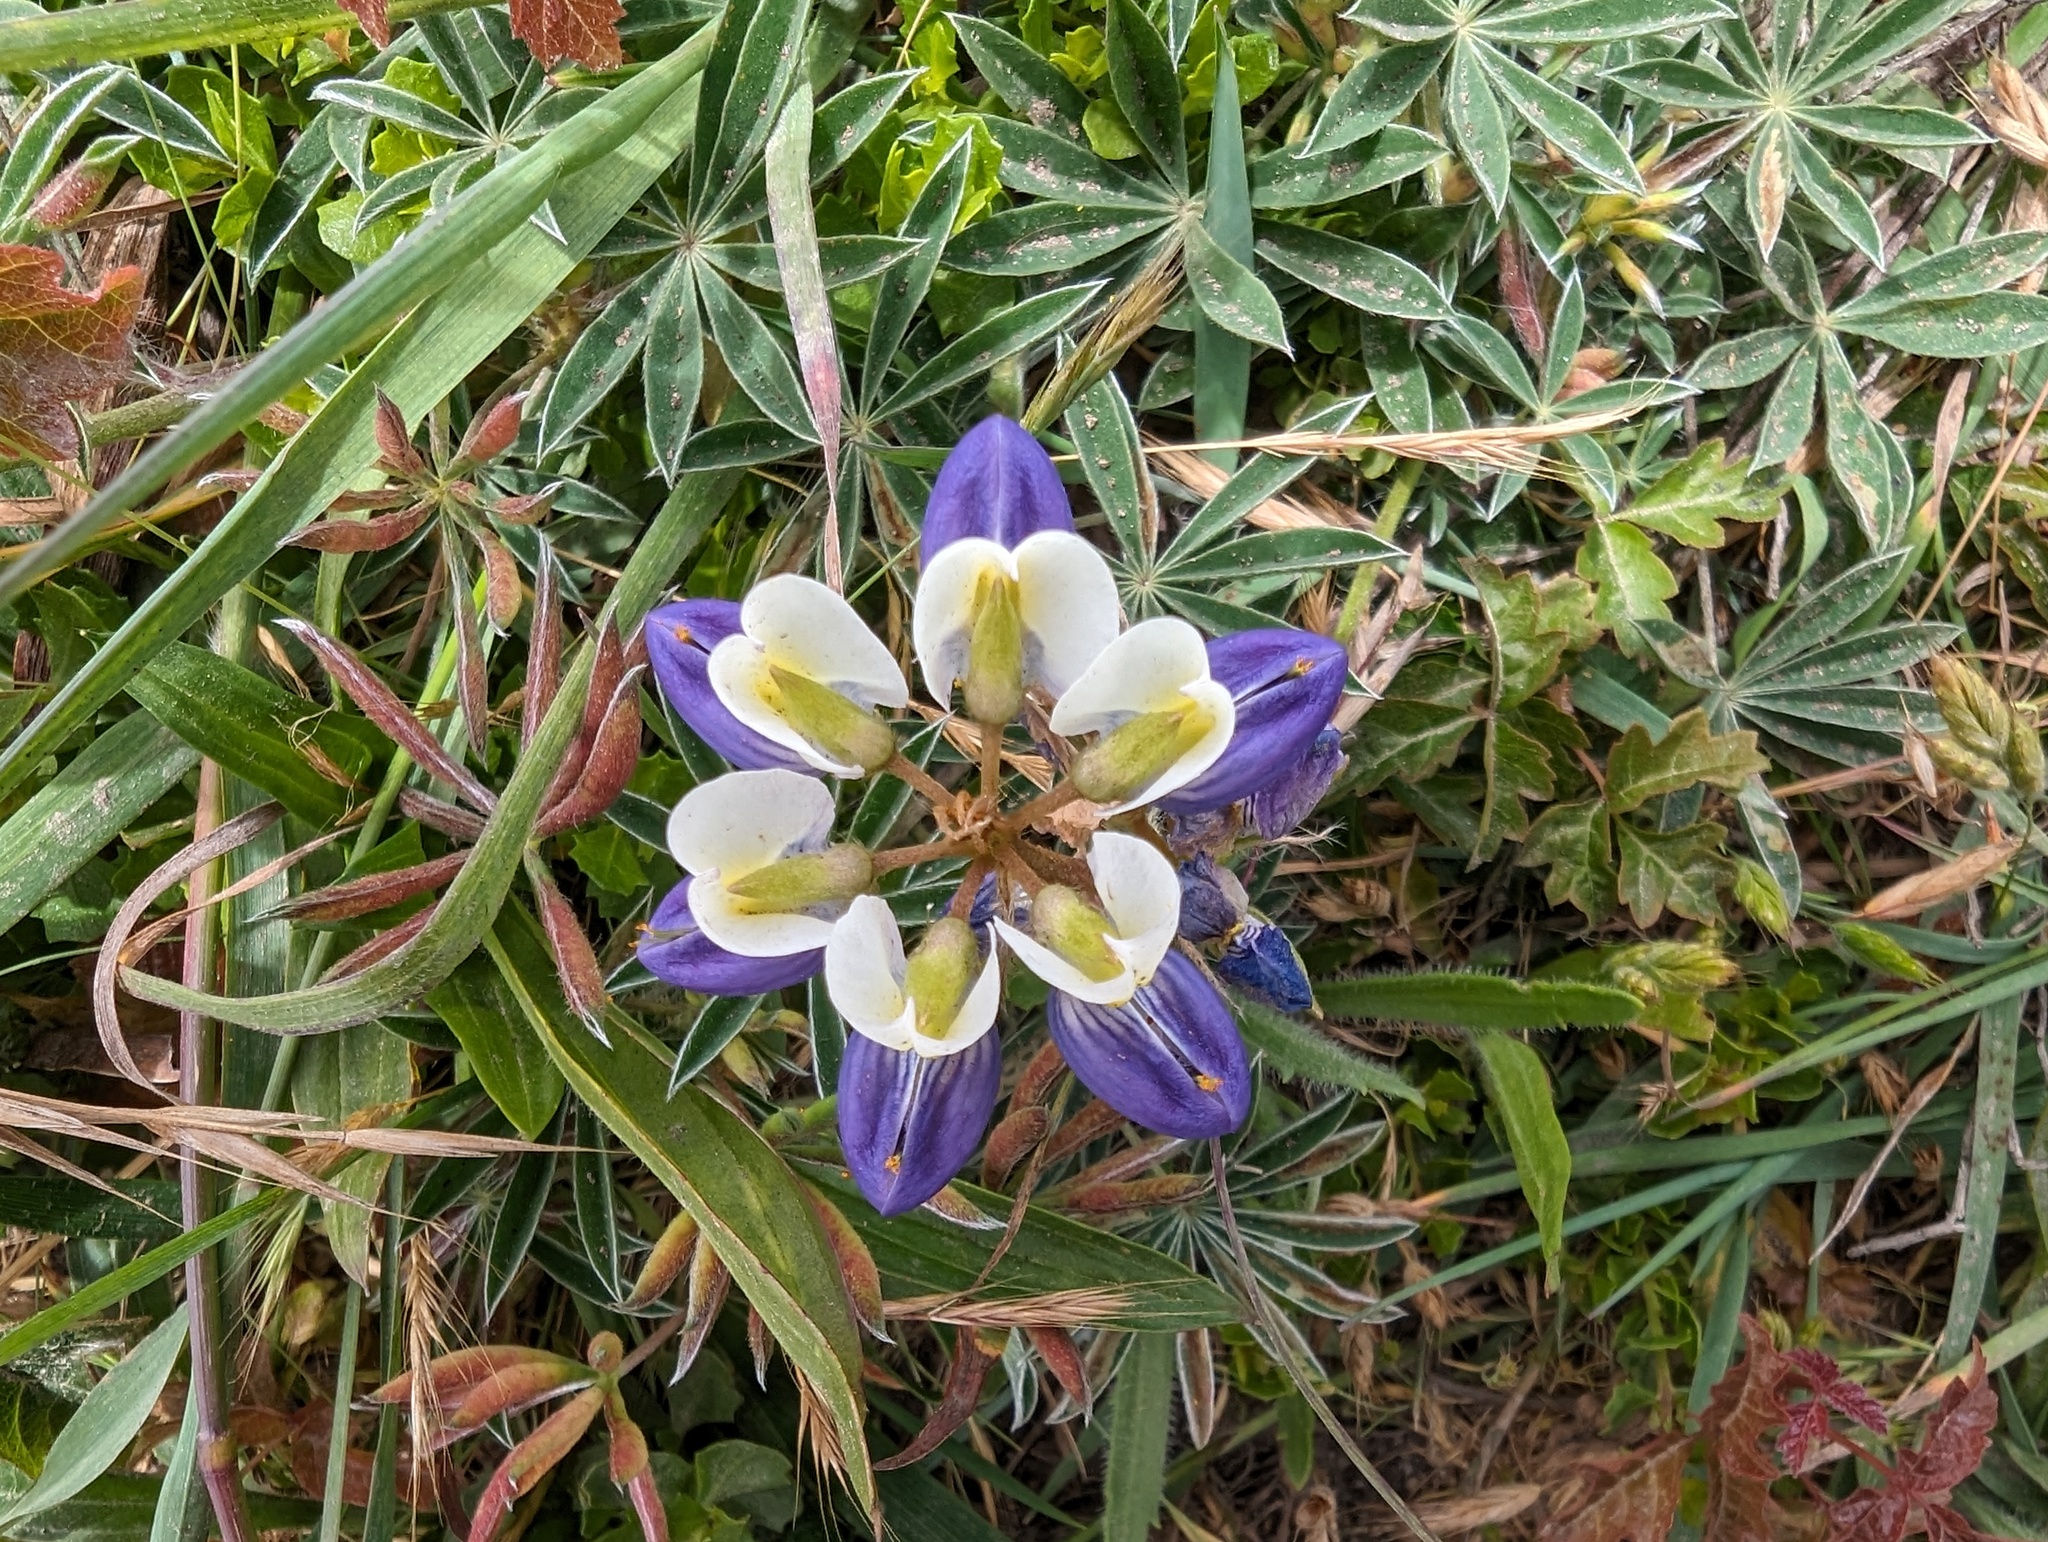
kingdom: Plantae
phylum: Tracheophyta
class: Magnoliopsida
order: Fabales
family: Fabaceae
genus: Lupinus
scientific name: Lupinus variicolor
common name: Lindley's varied lupine
